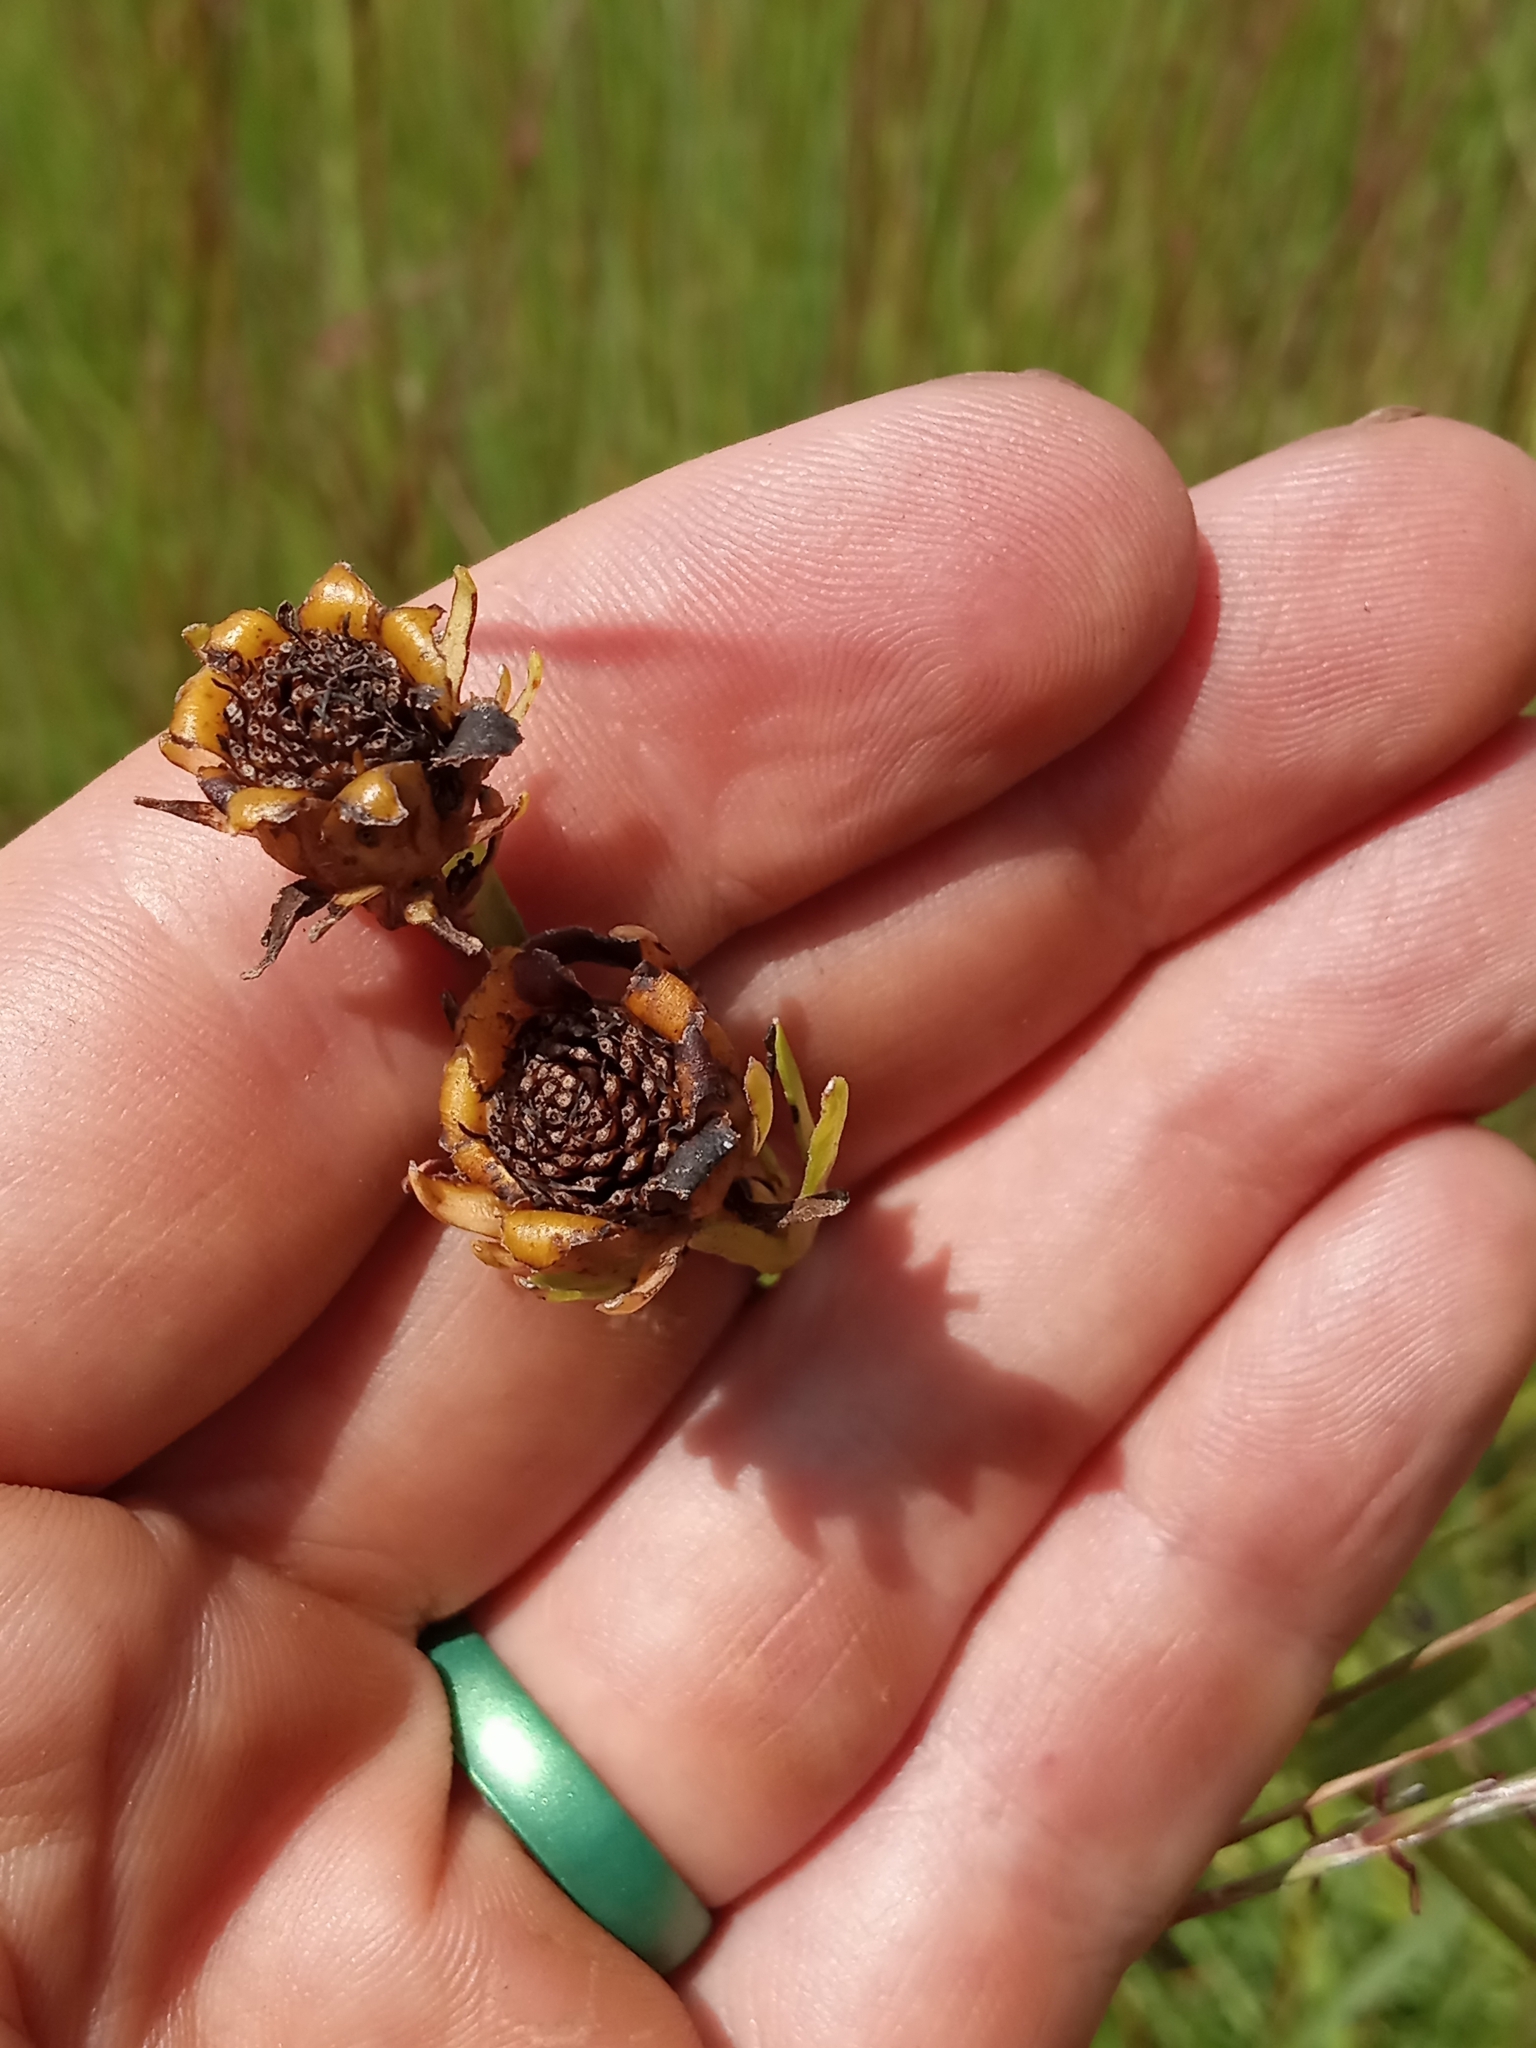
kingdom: Plantae
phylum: Tracheophyta
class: Magnoliopsida
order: Asterales
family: Asteraceae
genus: Coreopsis
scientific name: Coreopsis palmata
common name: Prairie coreopsis
